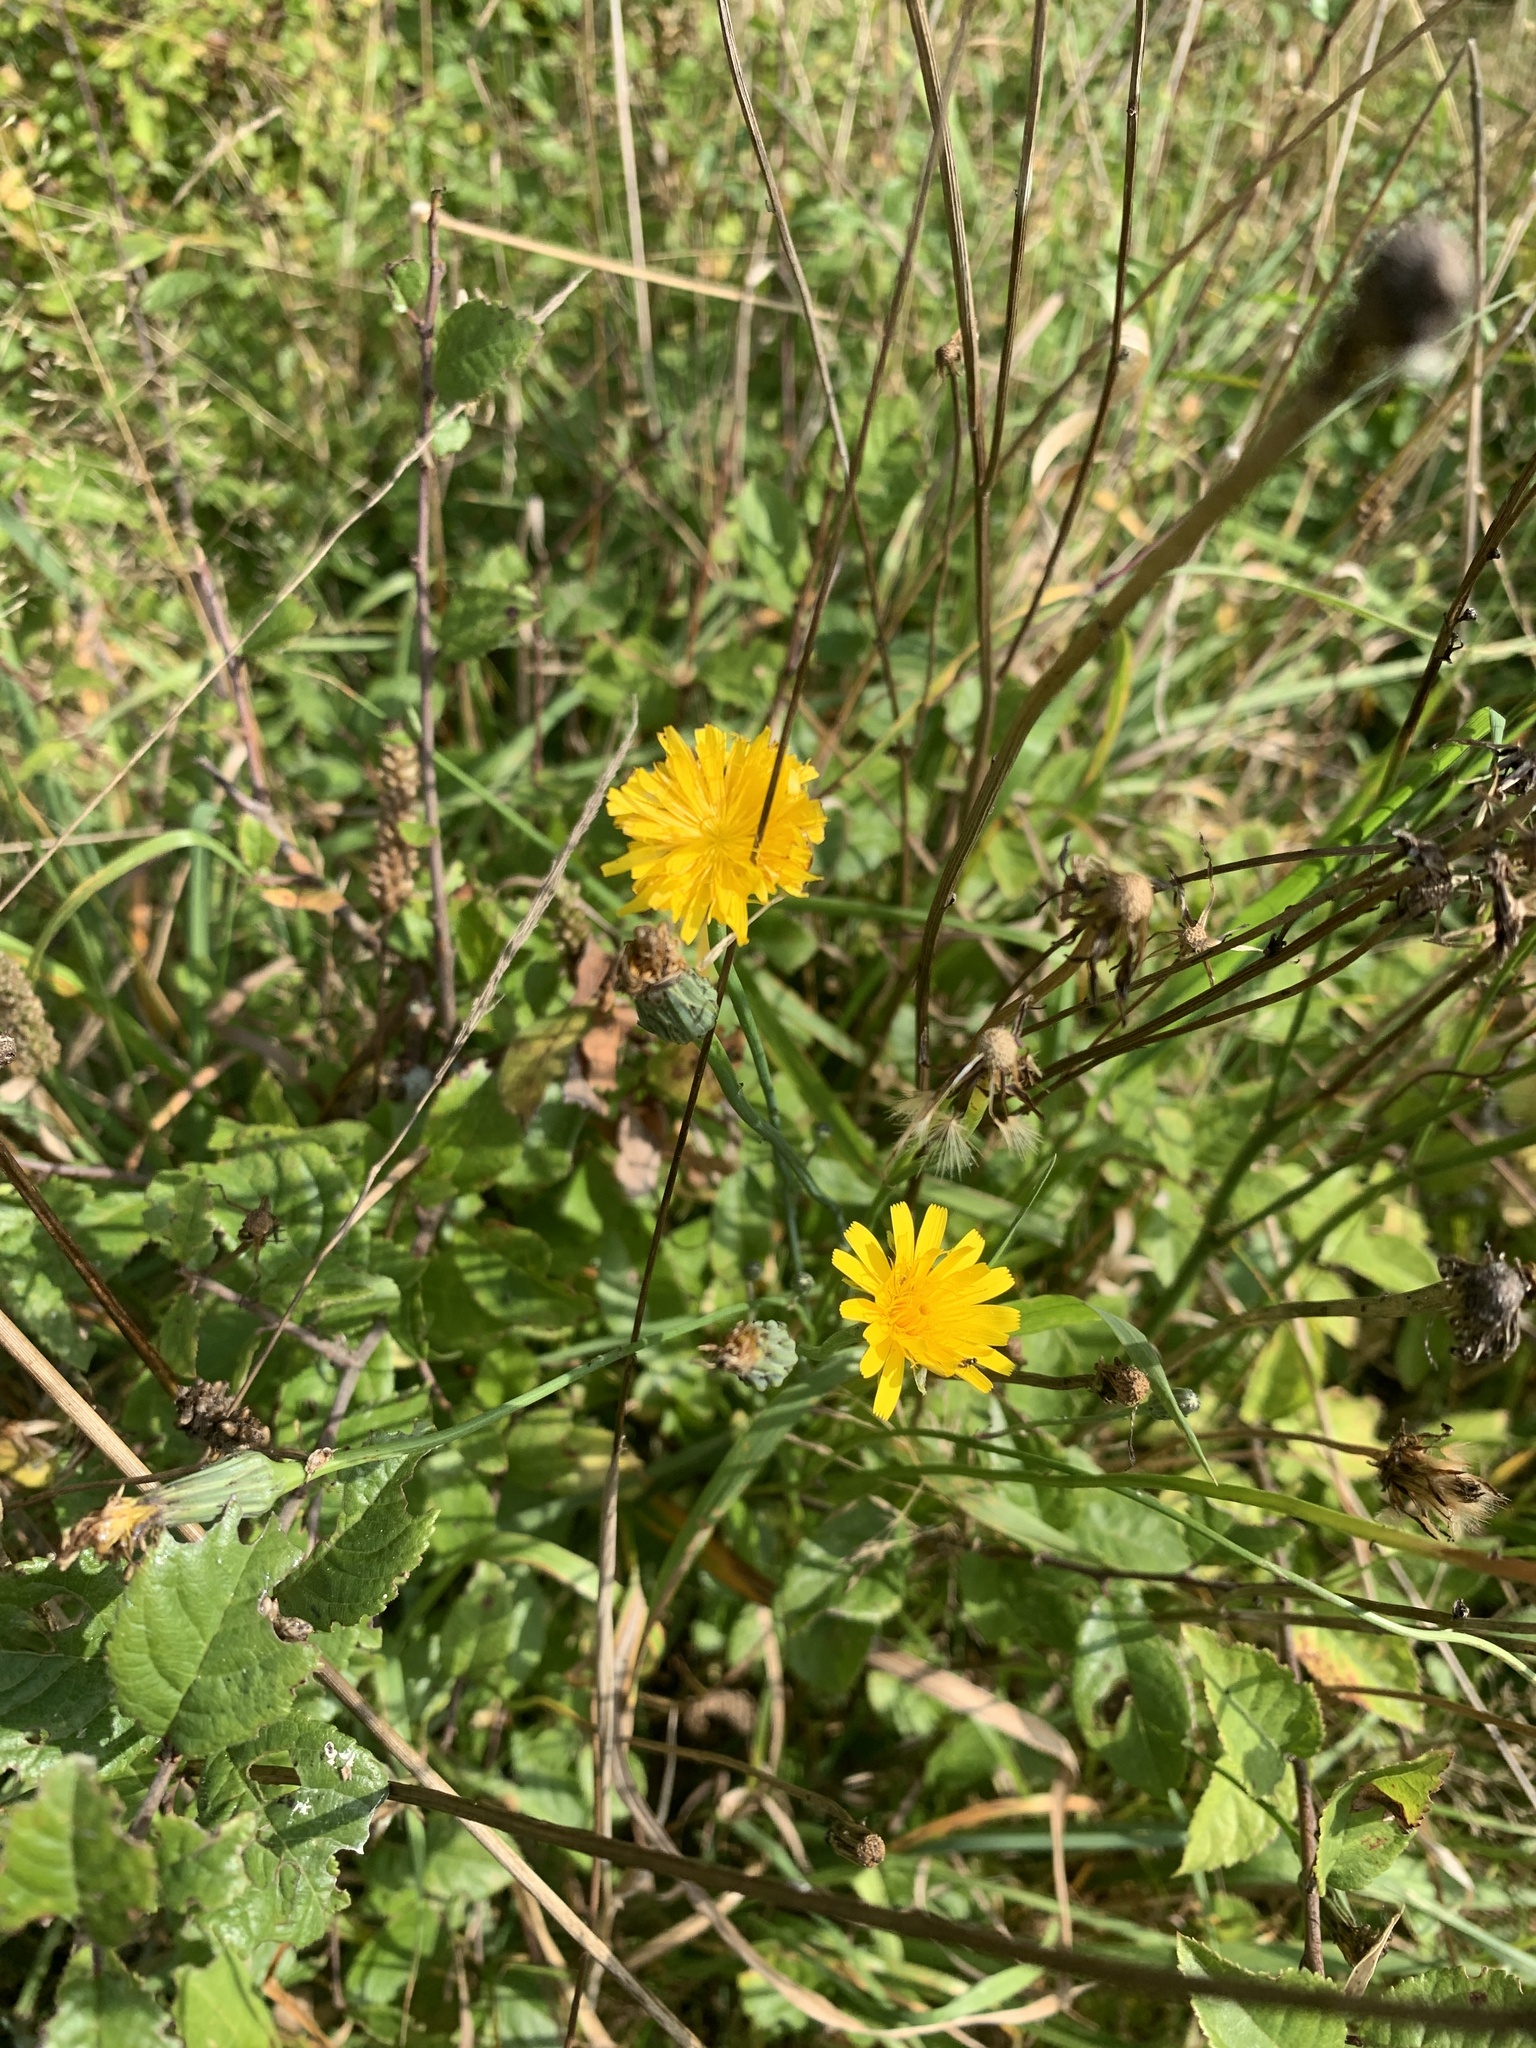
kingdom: Plantae
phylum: Tracheophyta
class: Magnoliopsida
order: Asterales
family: Asteraceae
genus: Hypochaeris
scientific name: Hypochaeris radicata
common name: Flatweed
